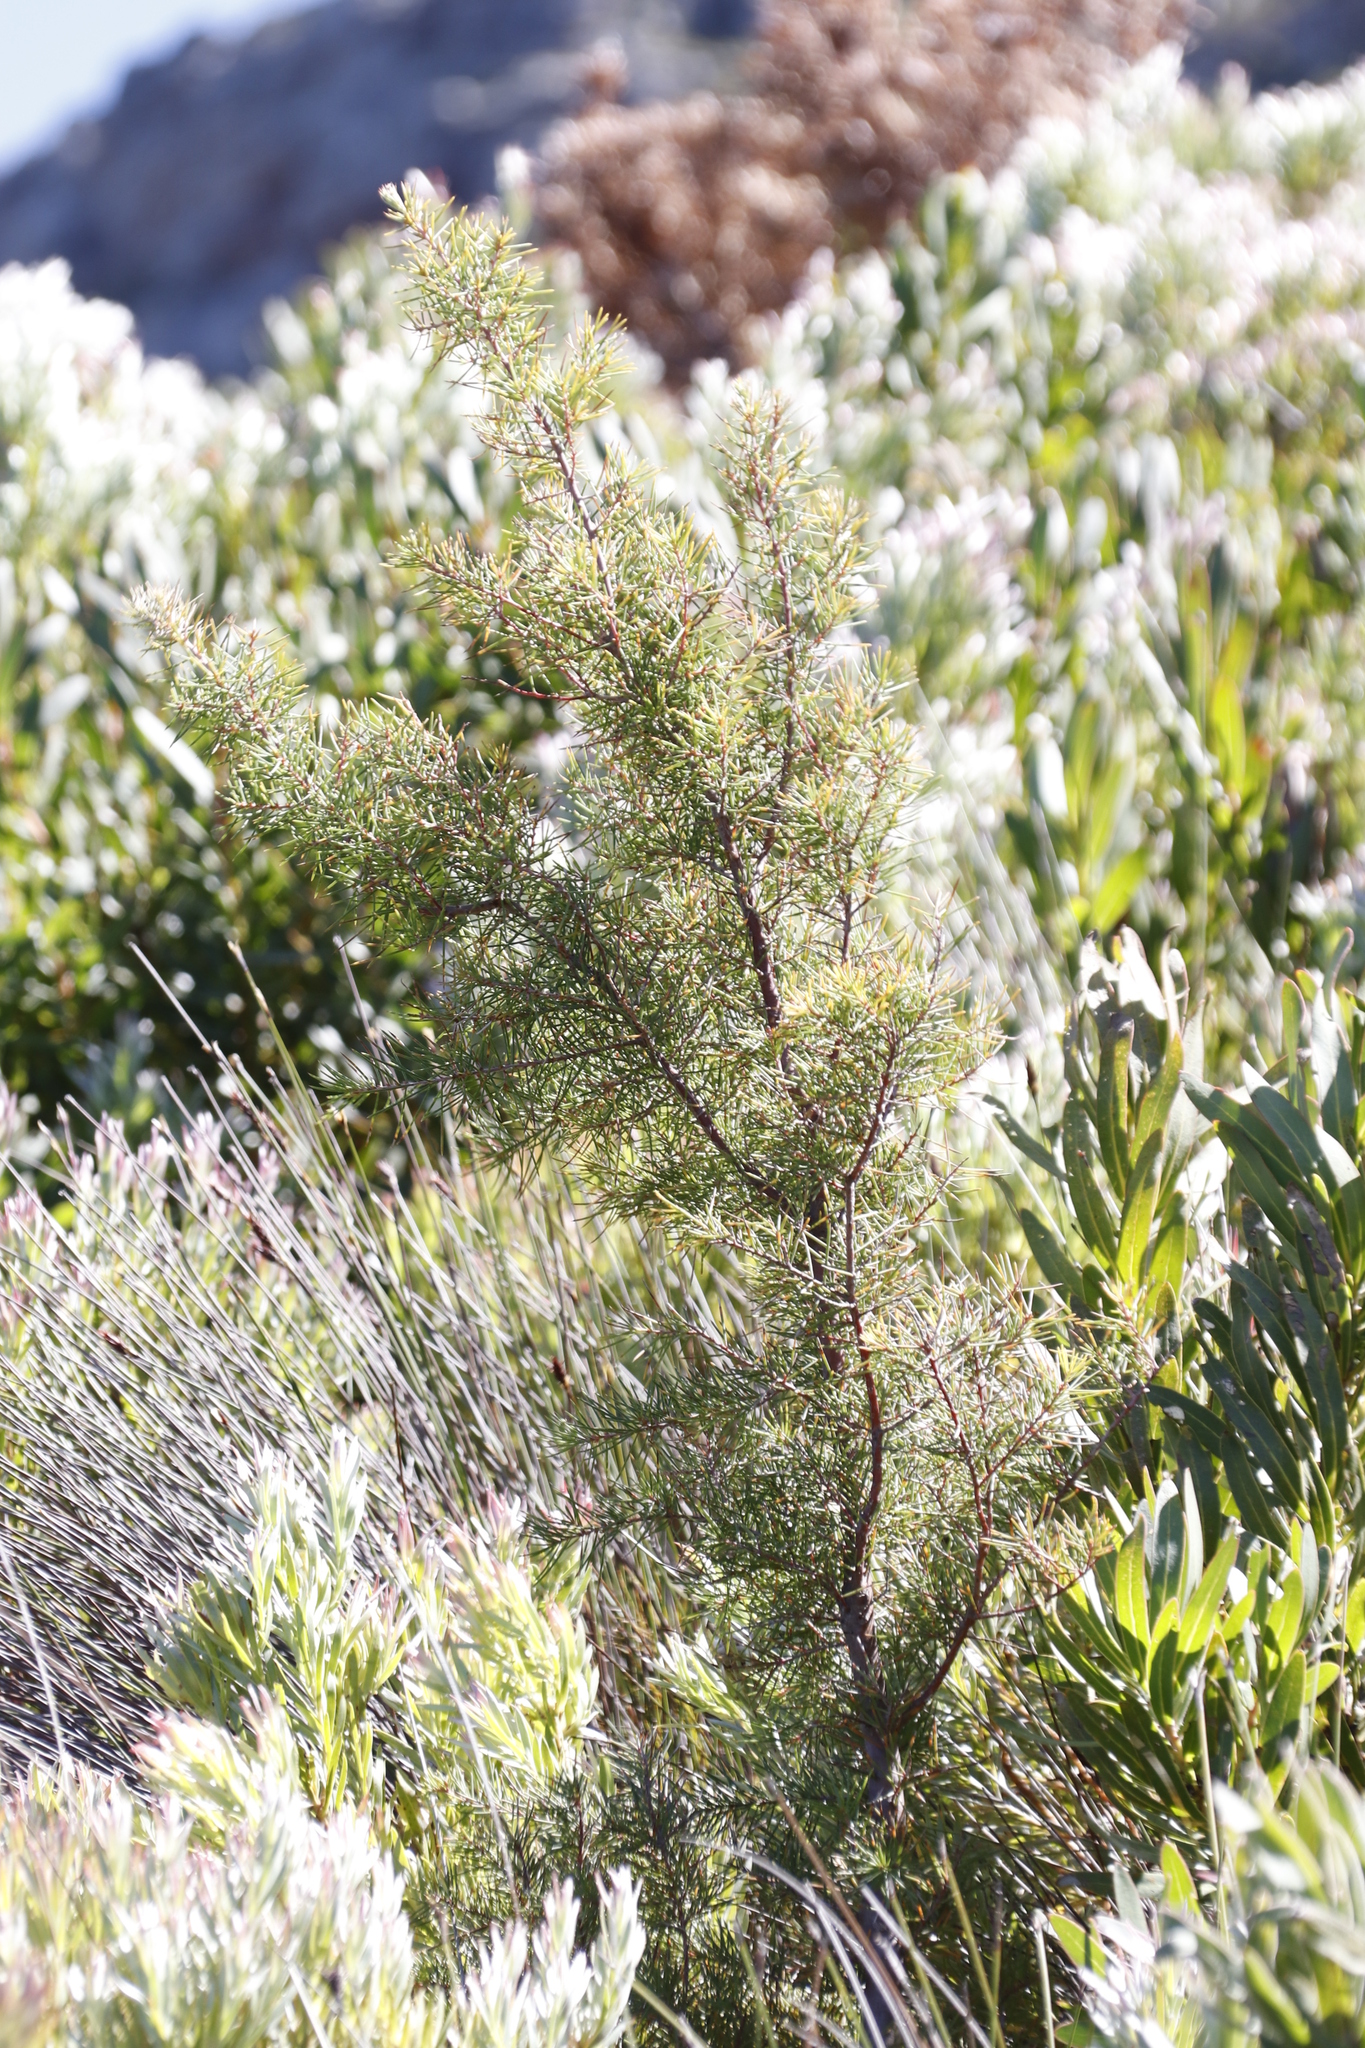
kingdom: Plantae
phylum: Tracheophyta
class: Magnoliopsida
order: Proteales
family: Proteaceae
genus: Hakea
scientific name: Hakea sericea
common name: Needle bush
